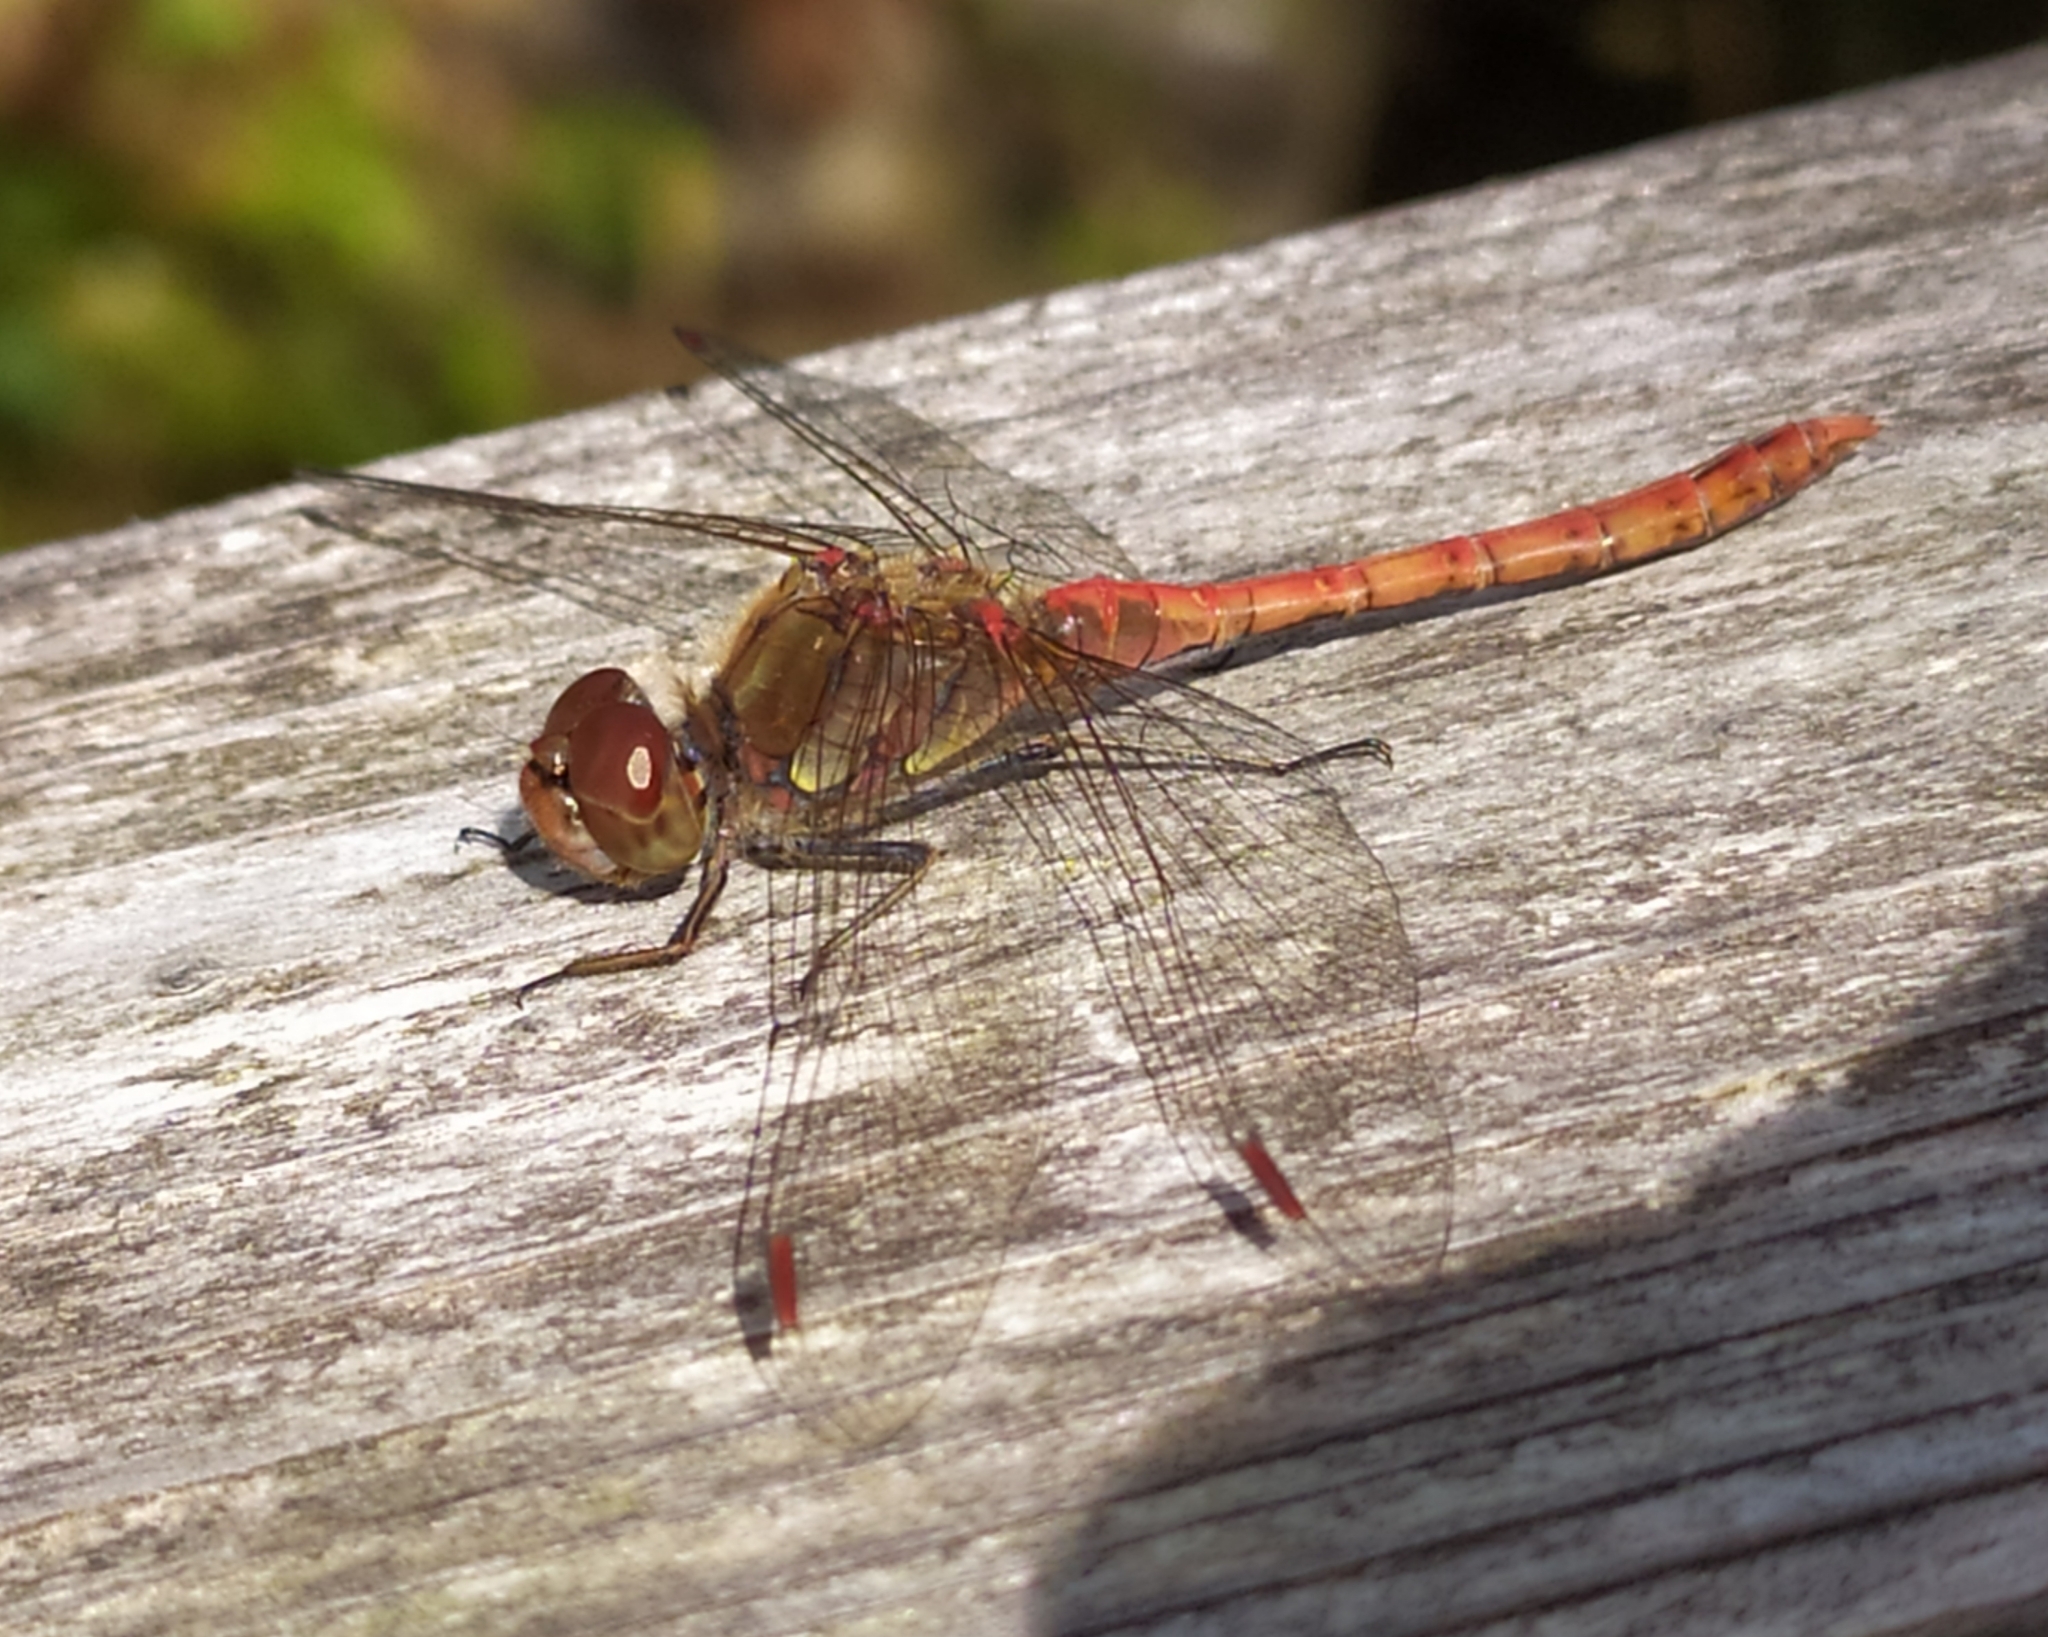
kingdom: Animalia
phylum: Arthropoda
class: Insecta
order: Odonata
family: Libellulidae
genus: Sympetrum
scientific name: Sympetrum striolatum
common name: Common darter
